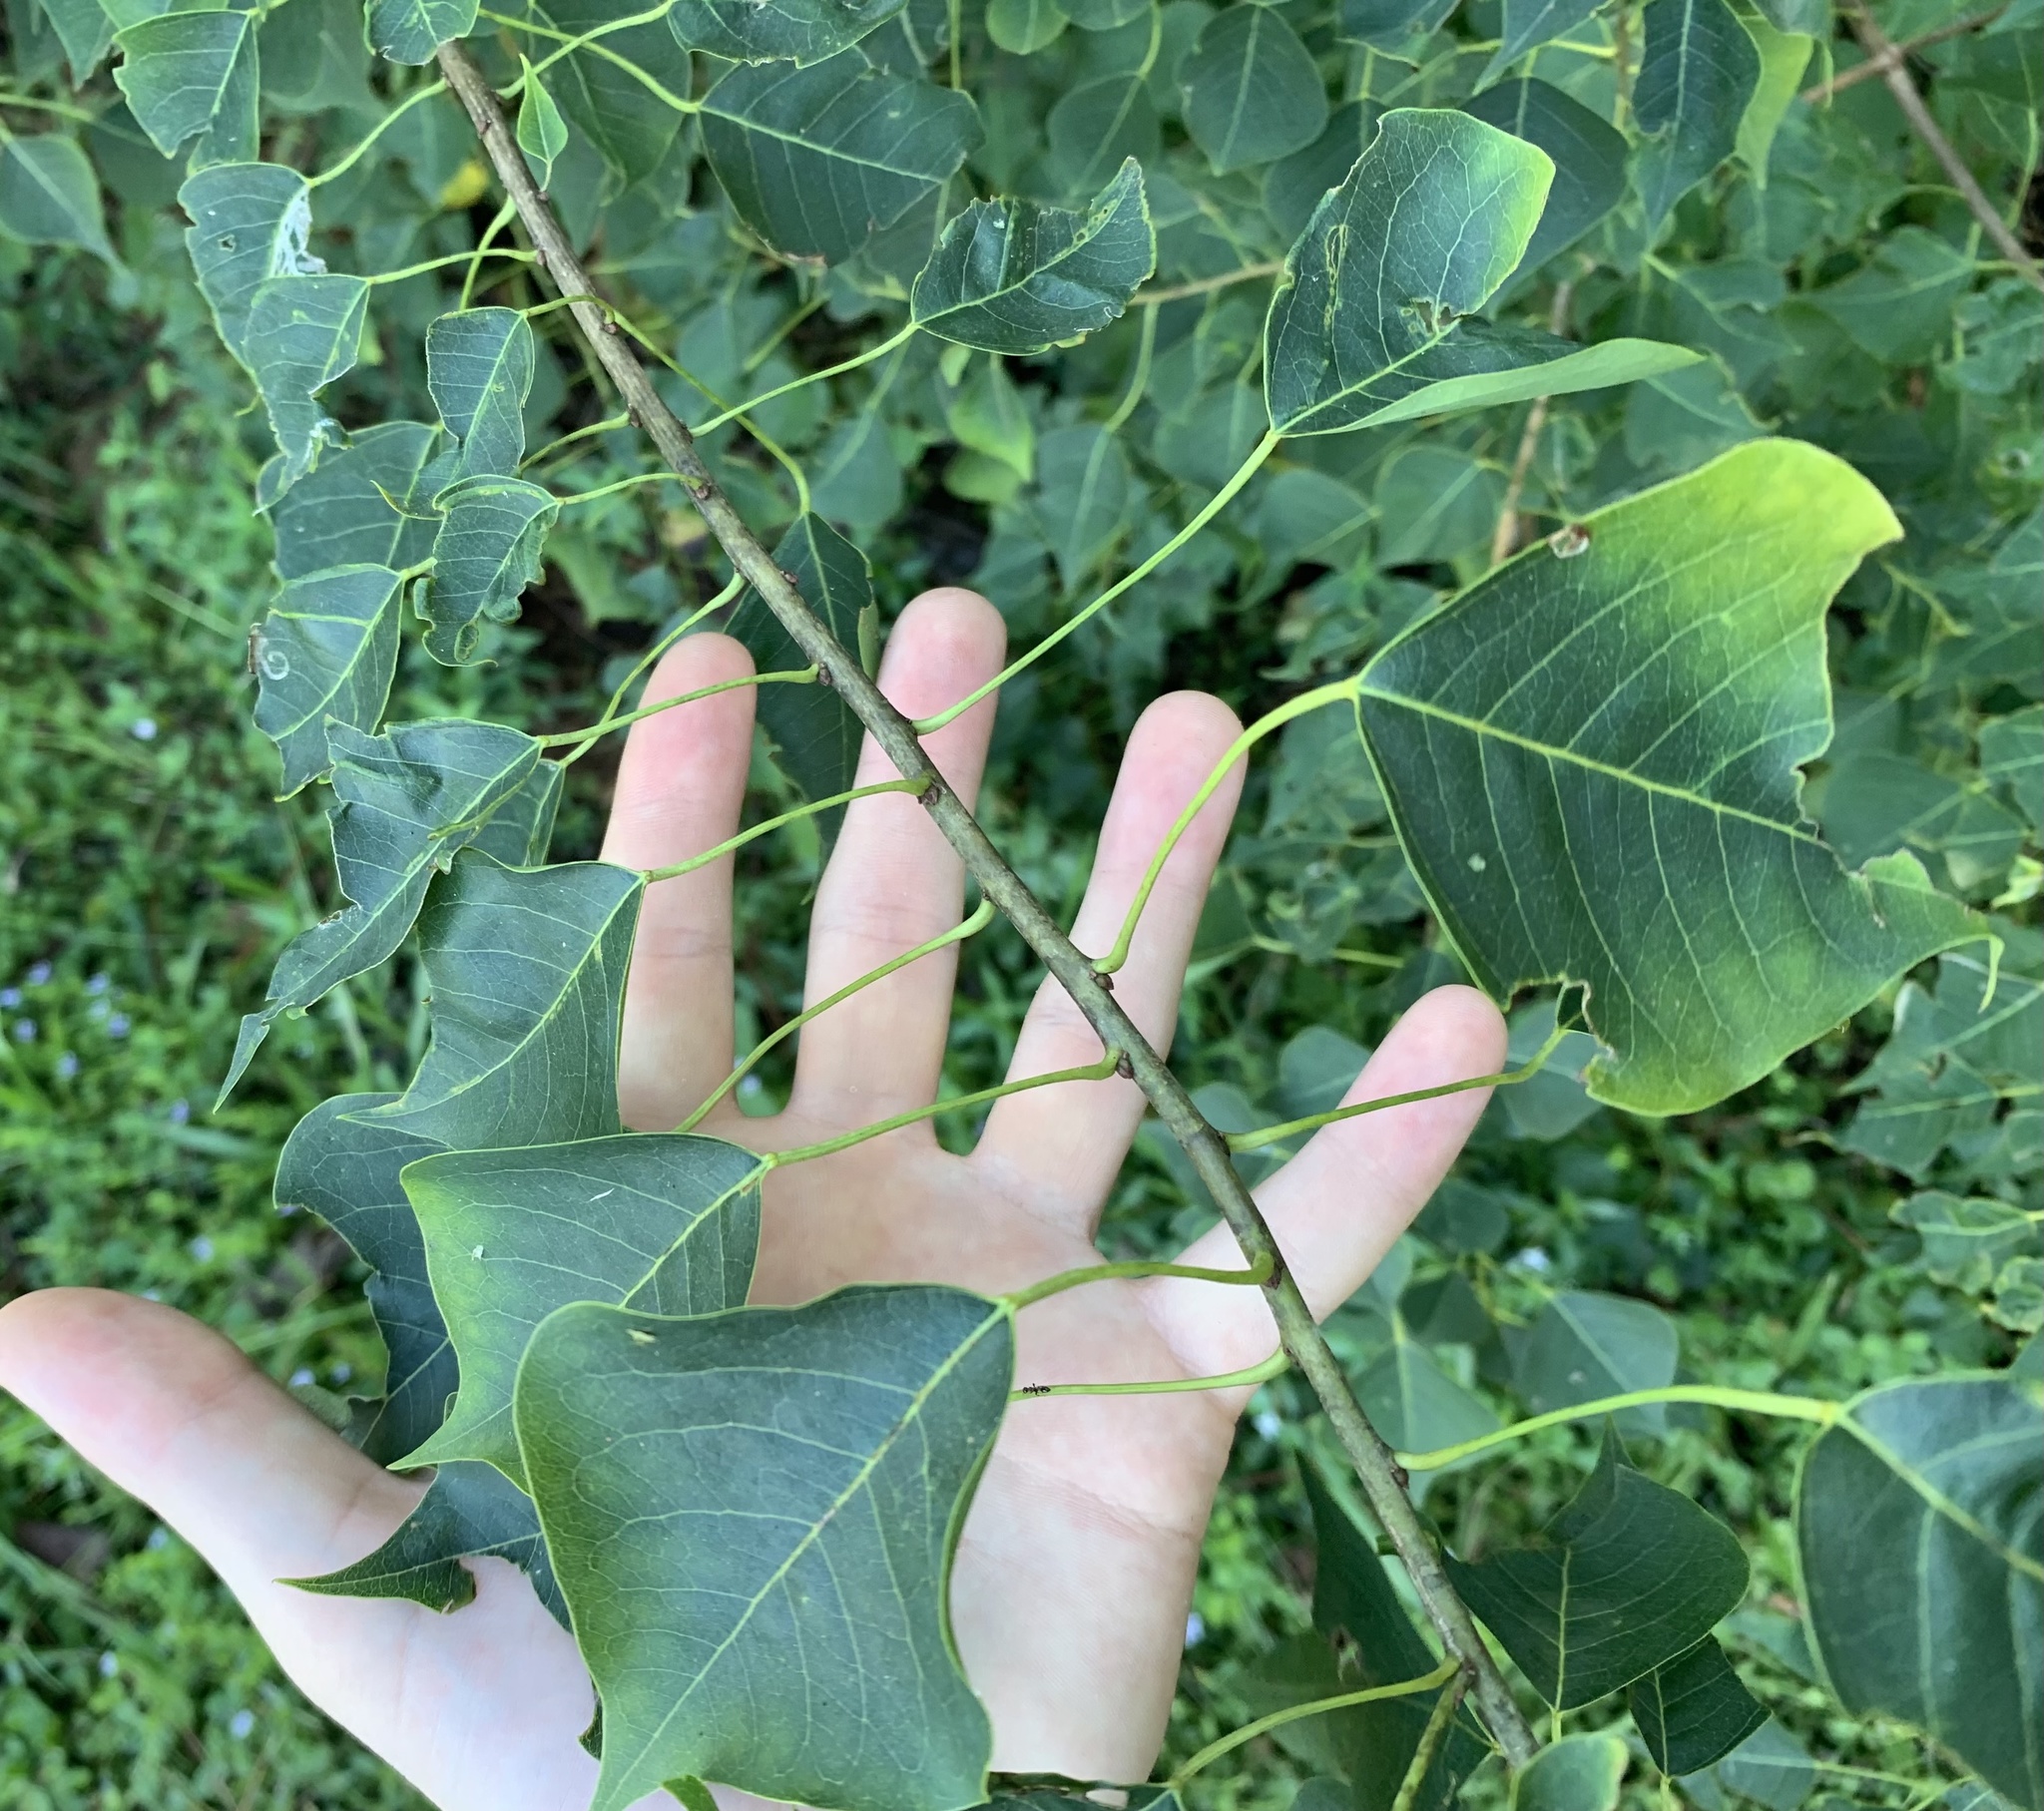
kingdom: Plantae
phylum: Tracheophyta
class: Magnoliopsida
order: Malpighiales
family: Euphorbiaceae
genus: Triadica
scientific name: Triadica sebifera
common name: Chinese tallow
